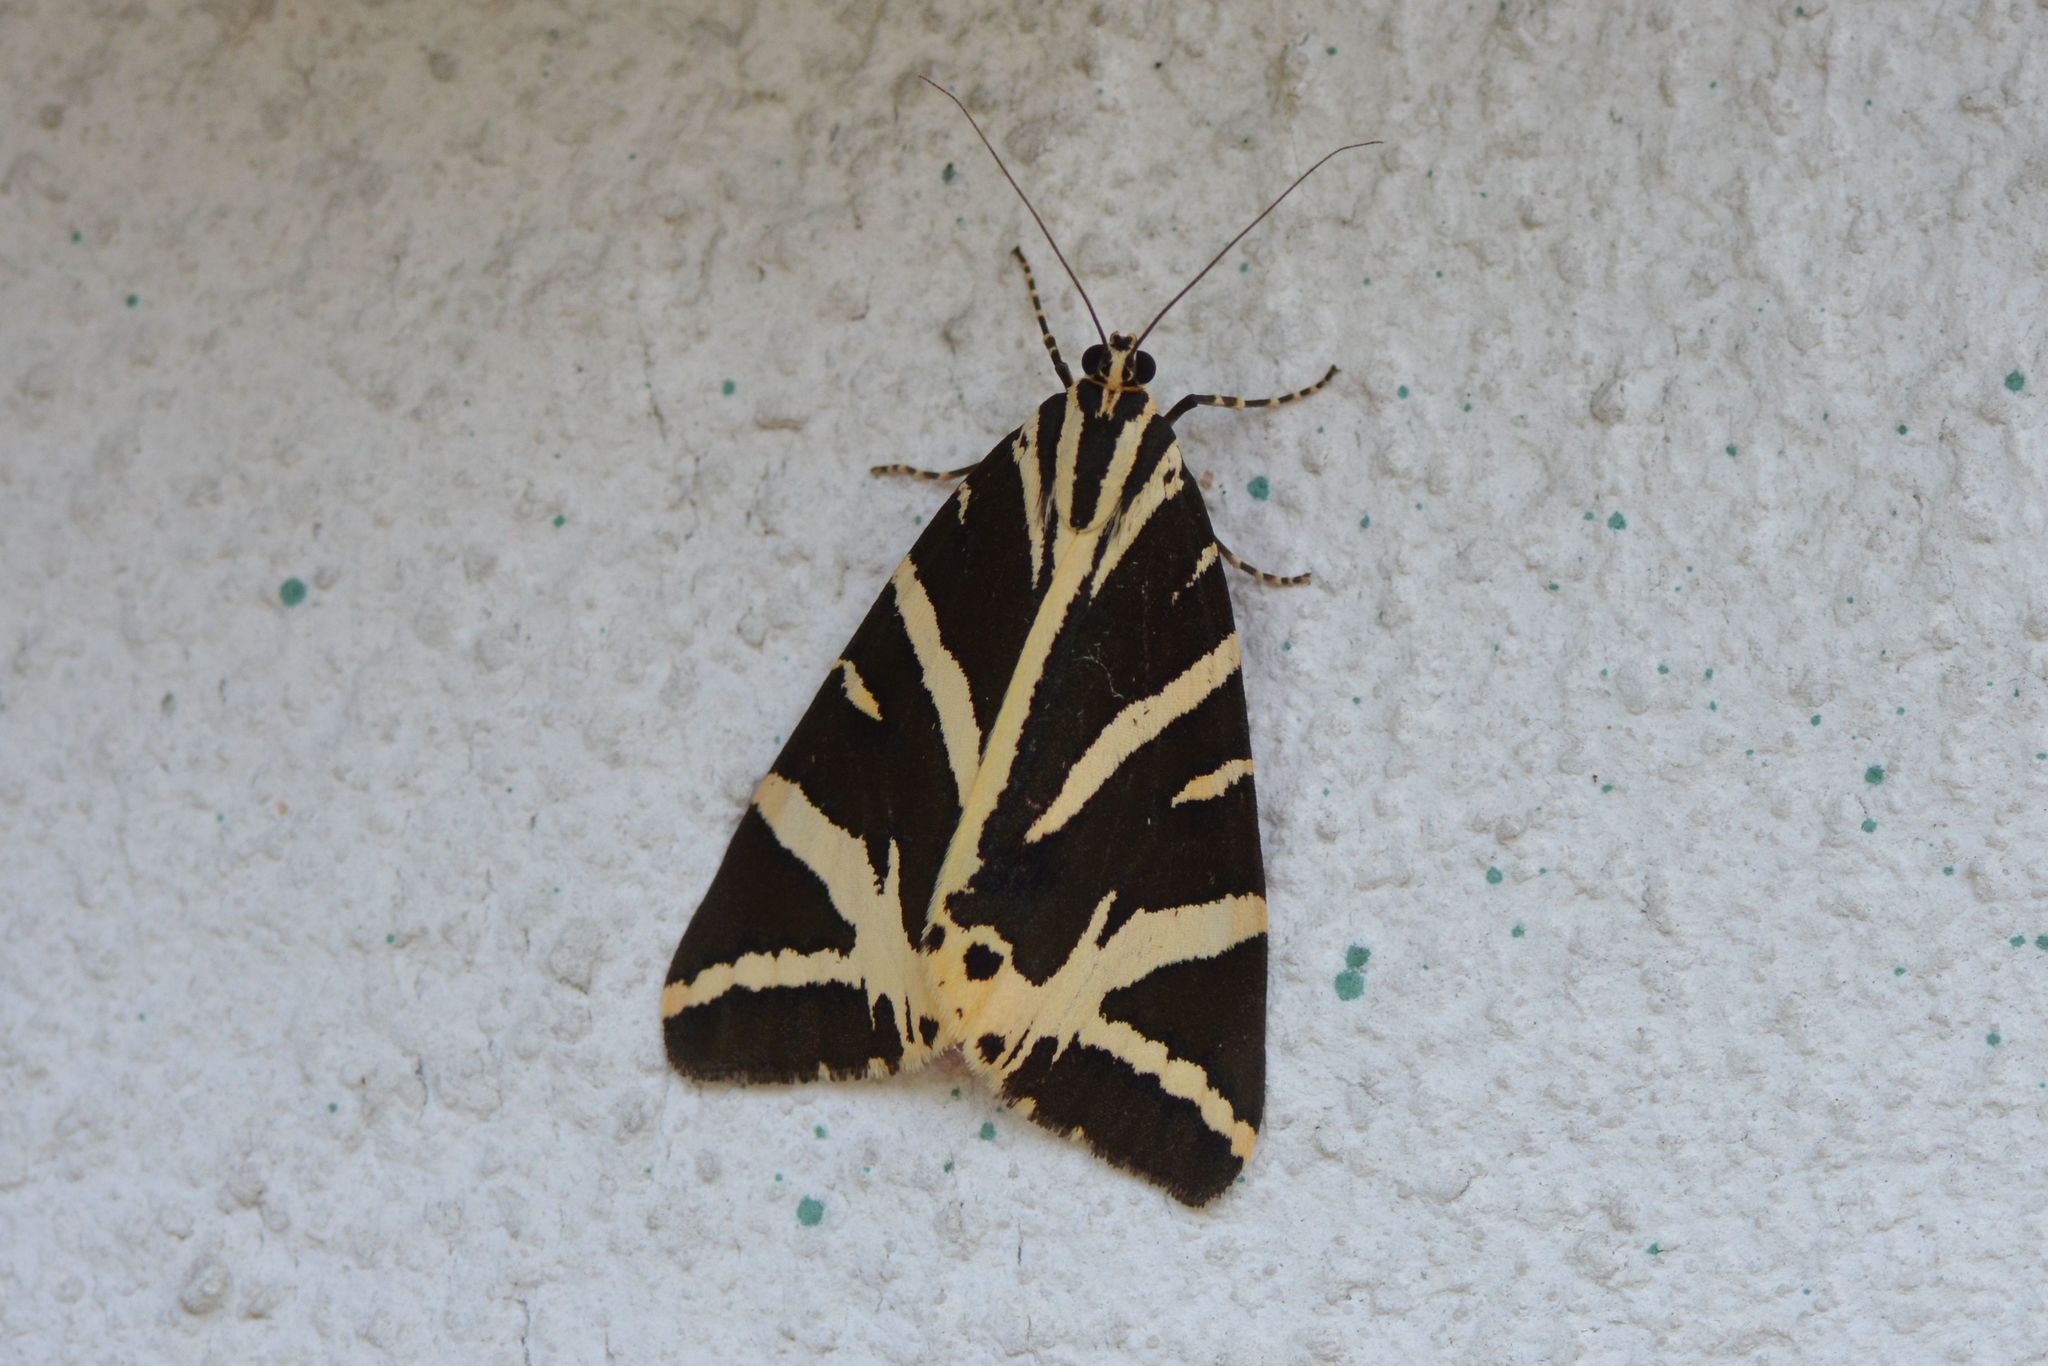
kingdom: Animalia
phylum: Arthropoda
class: Insecta
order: Lepidoptera
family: Erebidae
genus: Euplagia
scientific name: Euplagia quadripunctaria
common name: Jersey tiger
